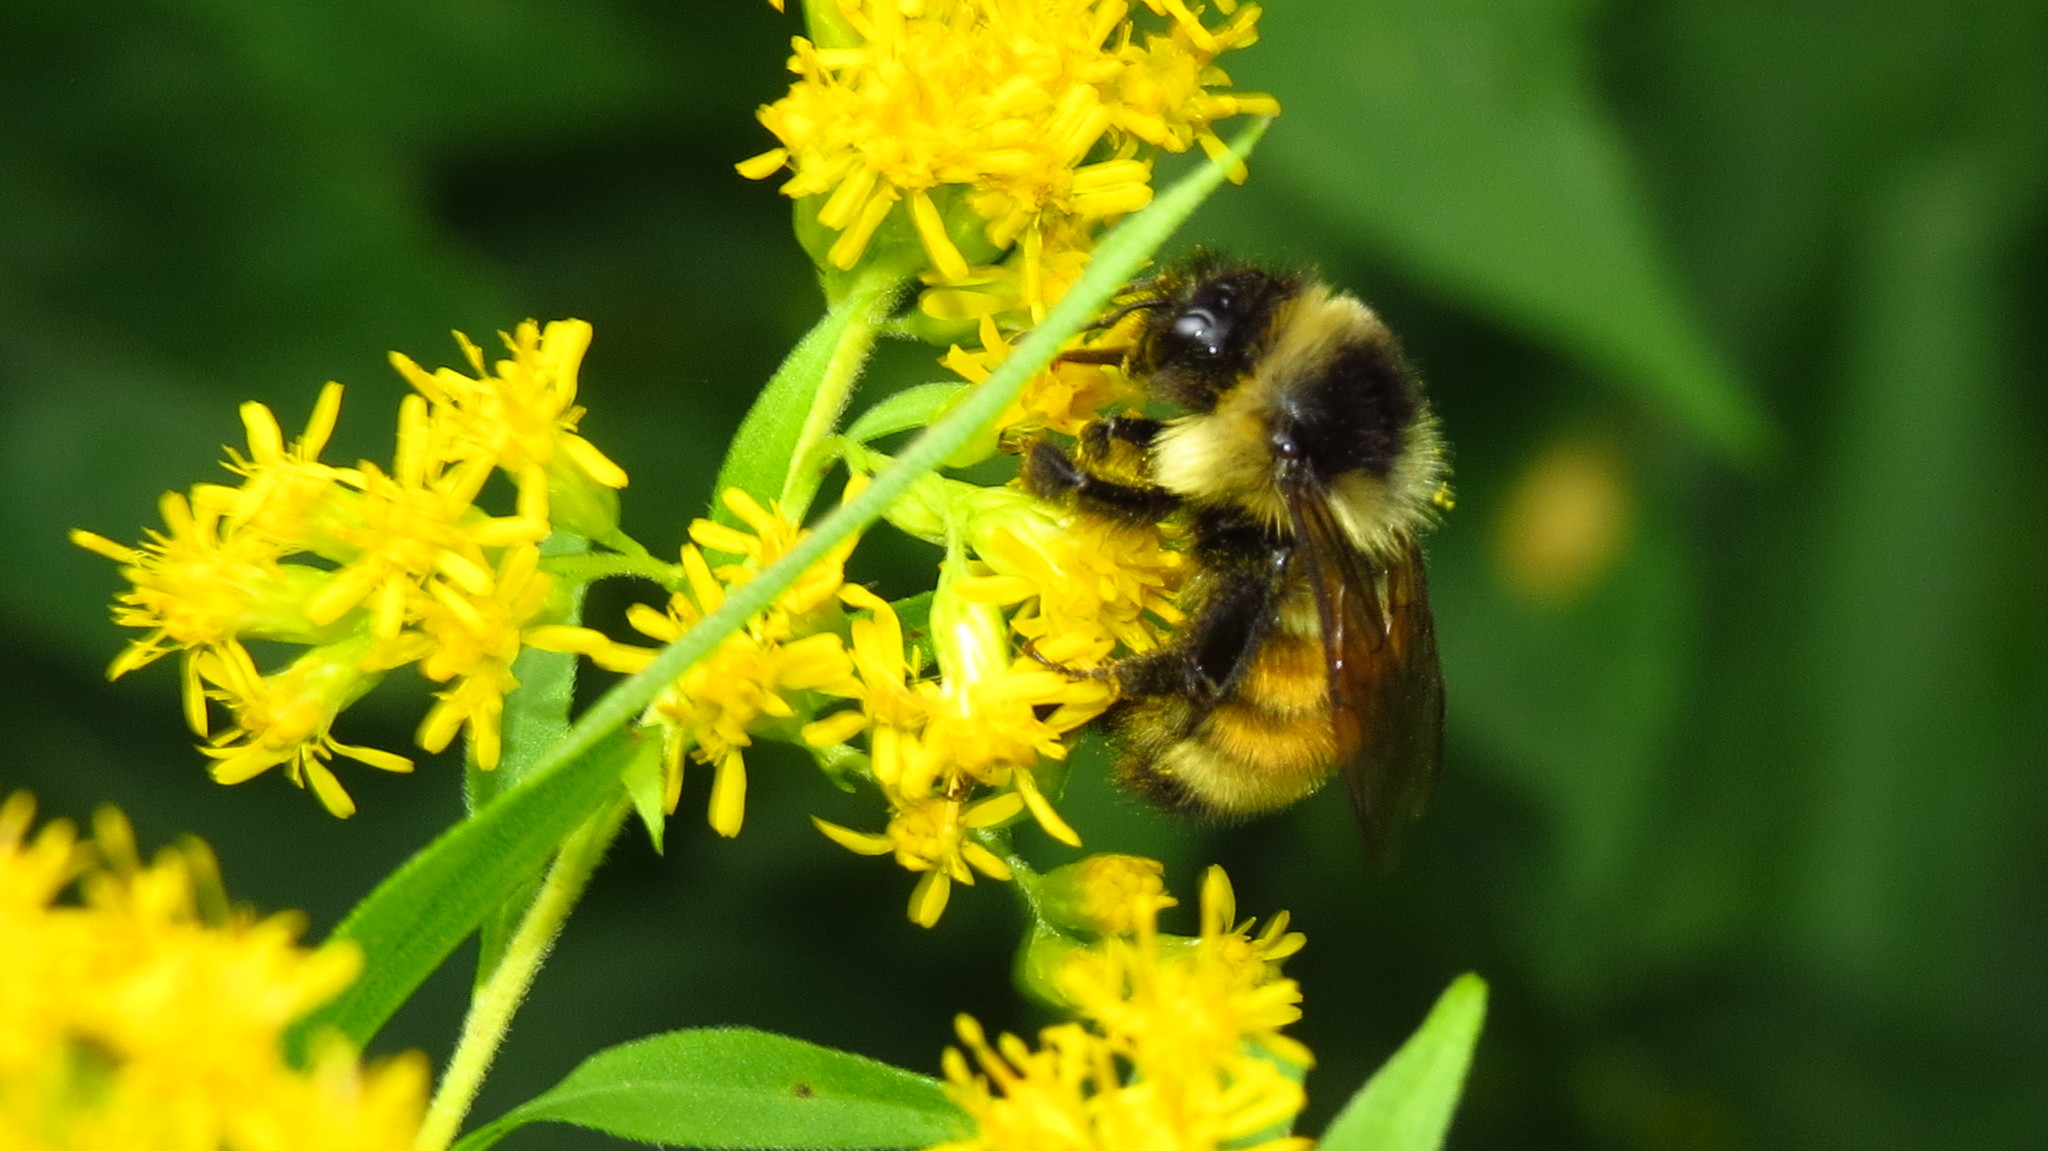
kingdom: Animalia
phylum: Arthropoda
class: Insecta
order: Hymenoptera
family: Apidae
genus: Bombus
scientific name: Bombus ternarius
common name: Tri-colored bumble bee
